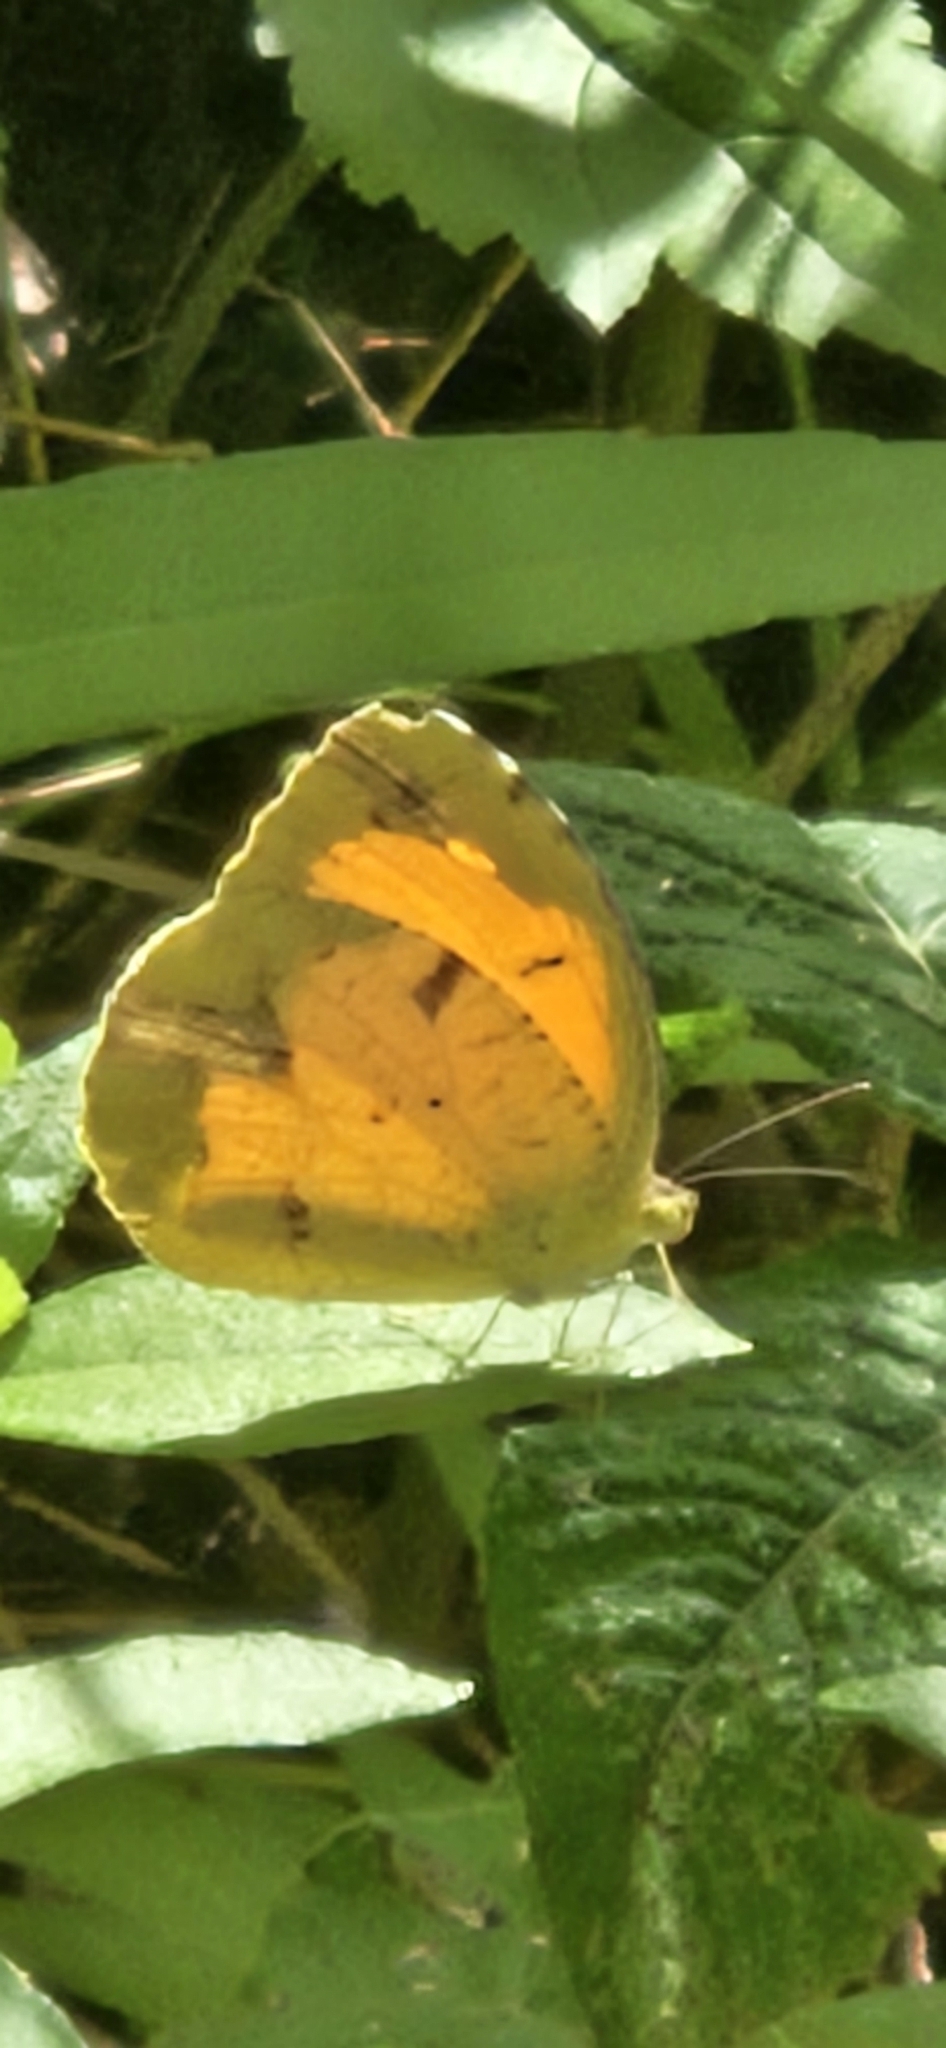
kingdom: Animalia
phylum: Arthropoda
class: Insecta
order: Lepidoptera
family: Pieridae
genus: Abaeis
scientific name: Abaeis nicippe
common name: Sleepy orange
